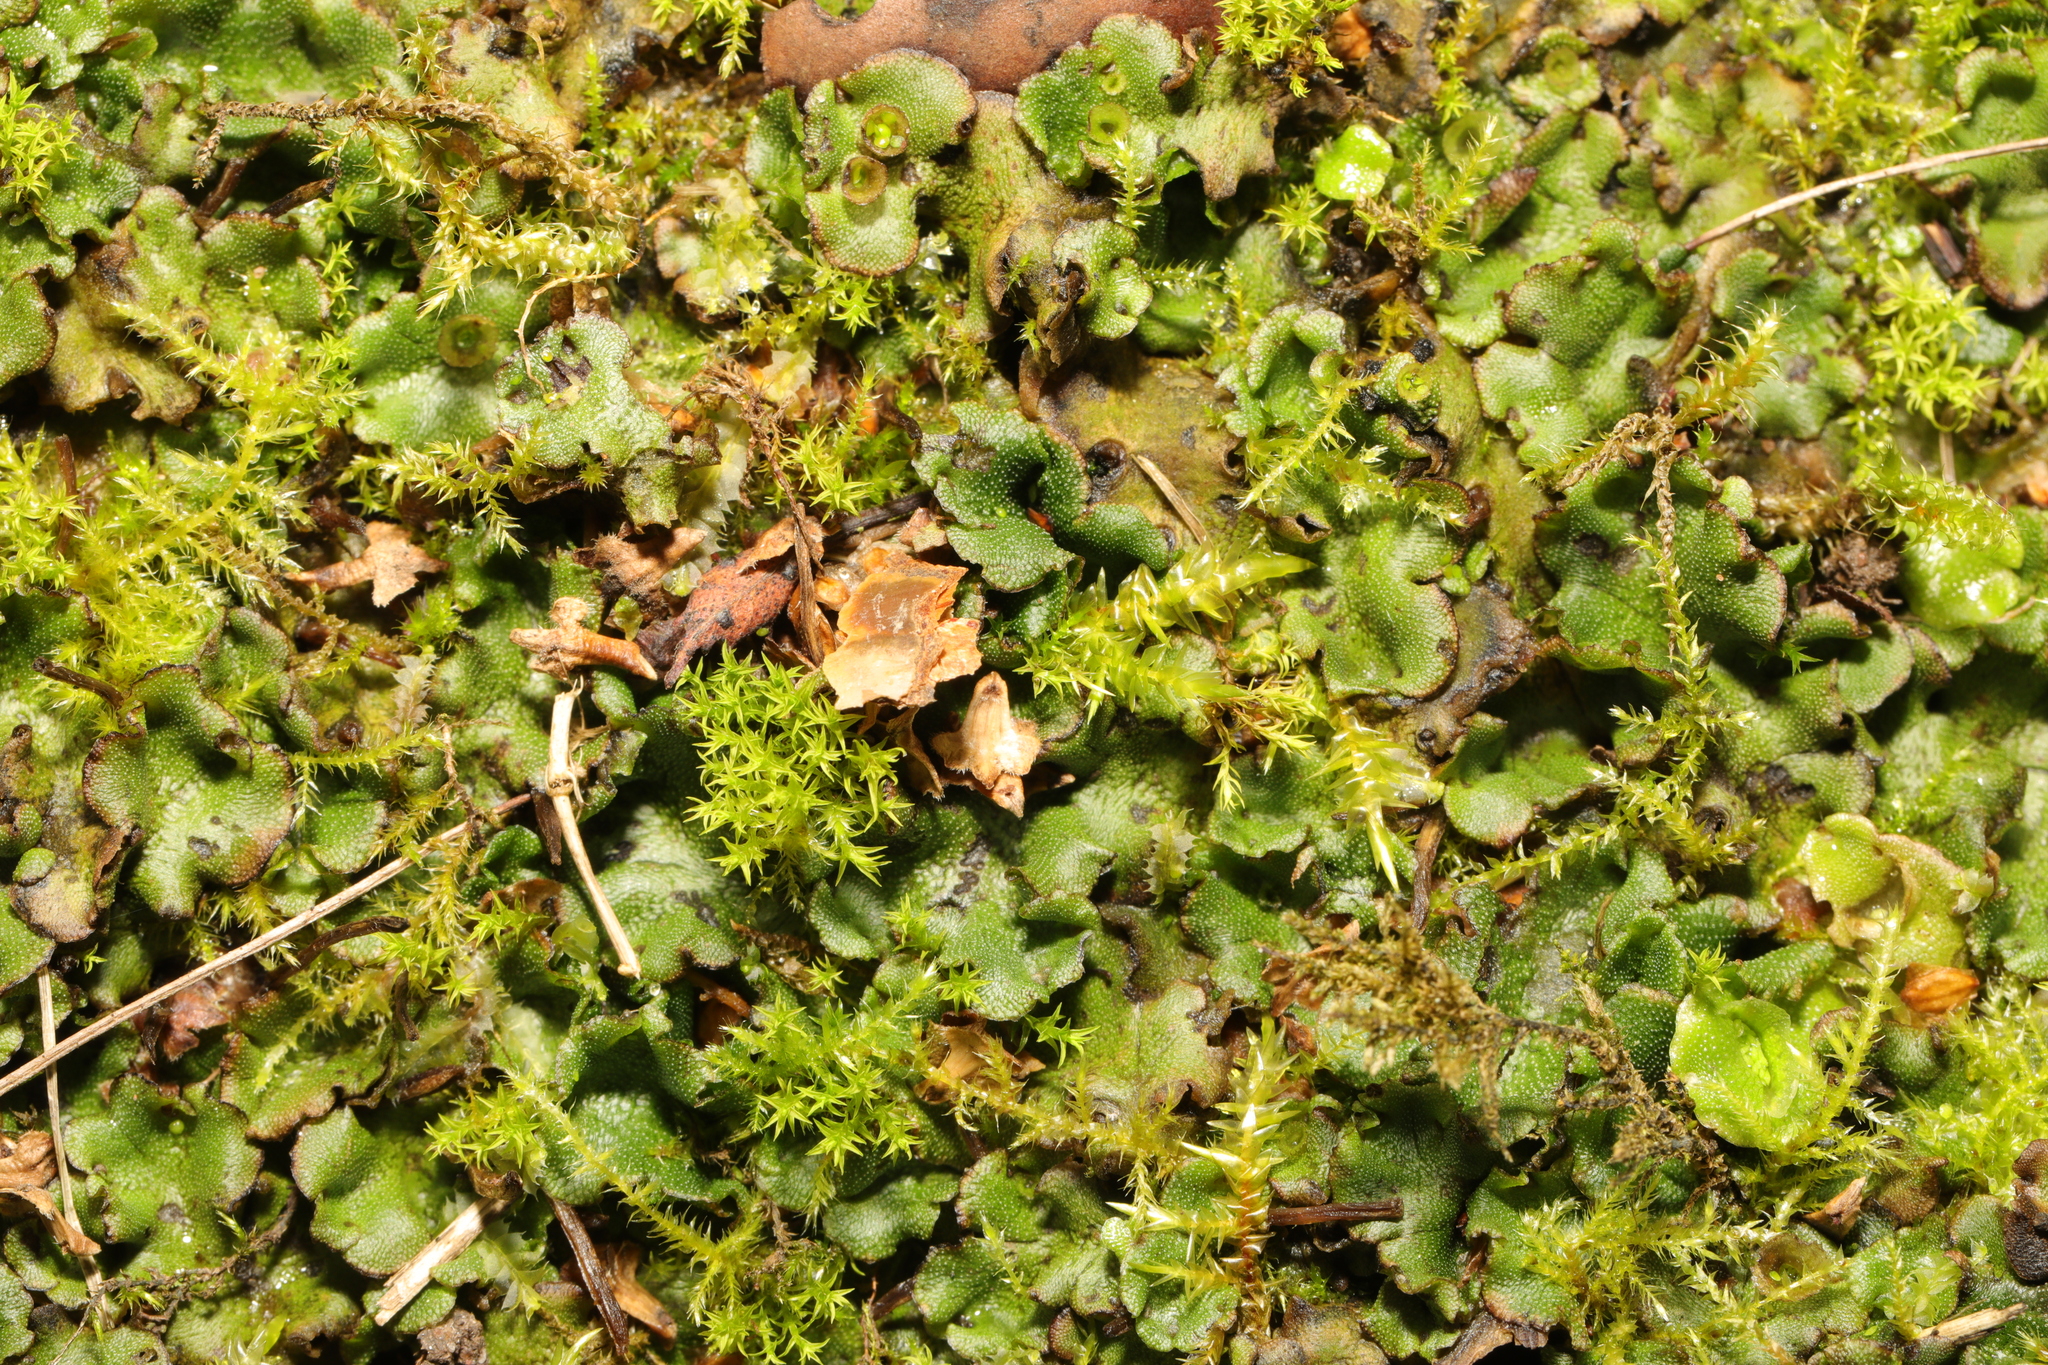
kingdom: Plantae
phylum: Marchantiophyta
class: Marchantiopsida
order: Marchantiales
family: Marchantiaceae
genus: Marchantia
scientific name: Marchantia polymorpha
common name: Common liverwort
